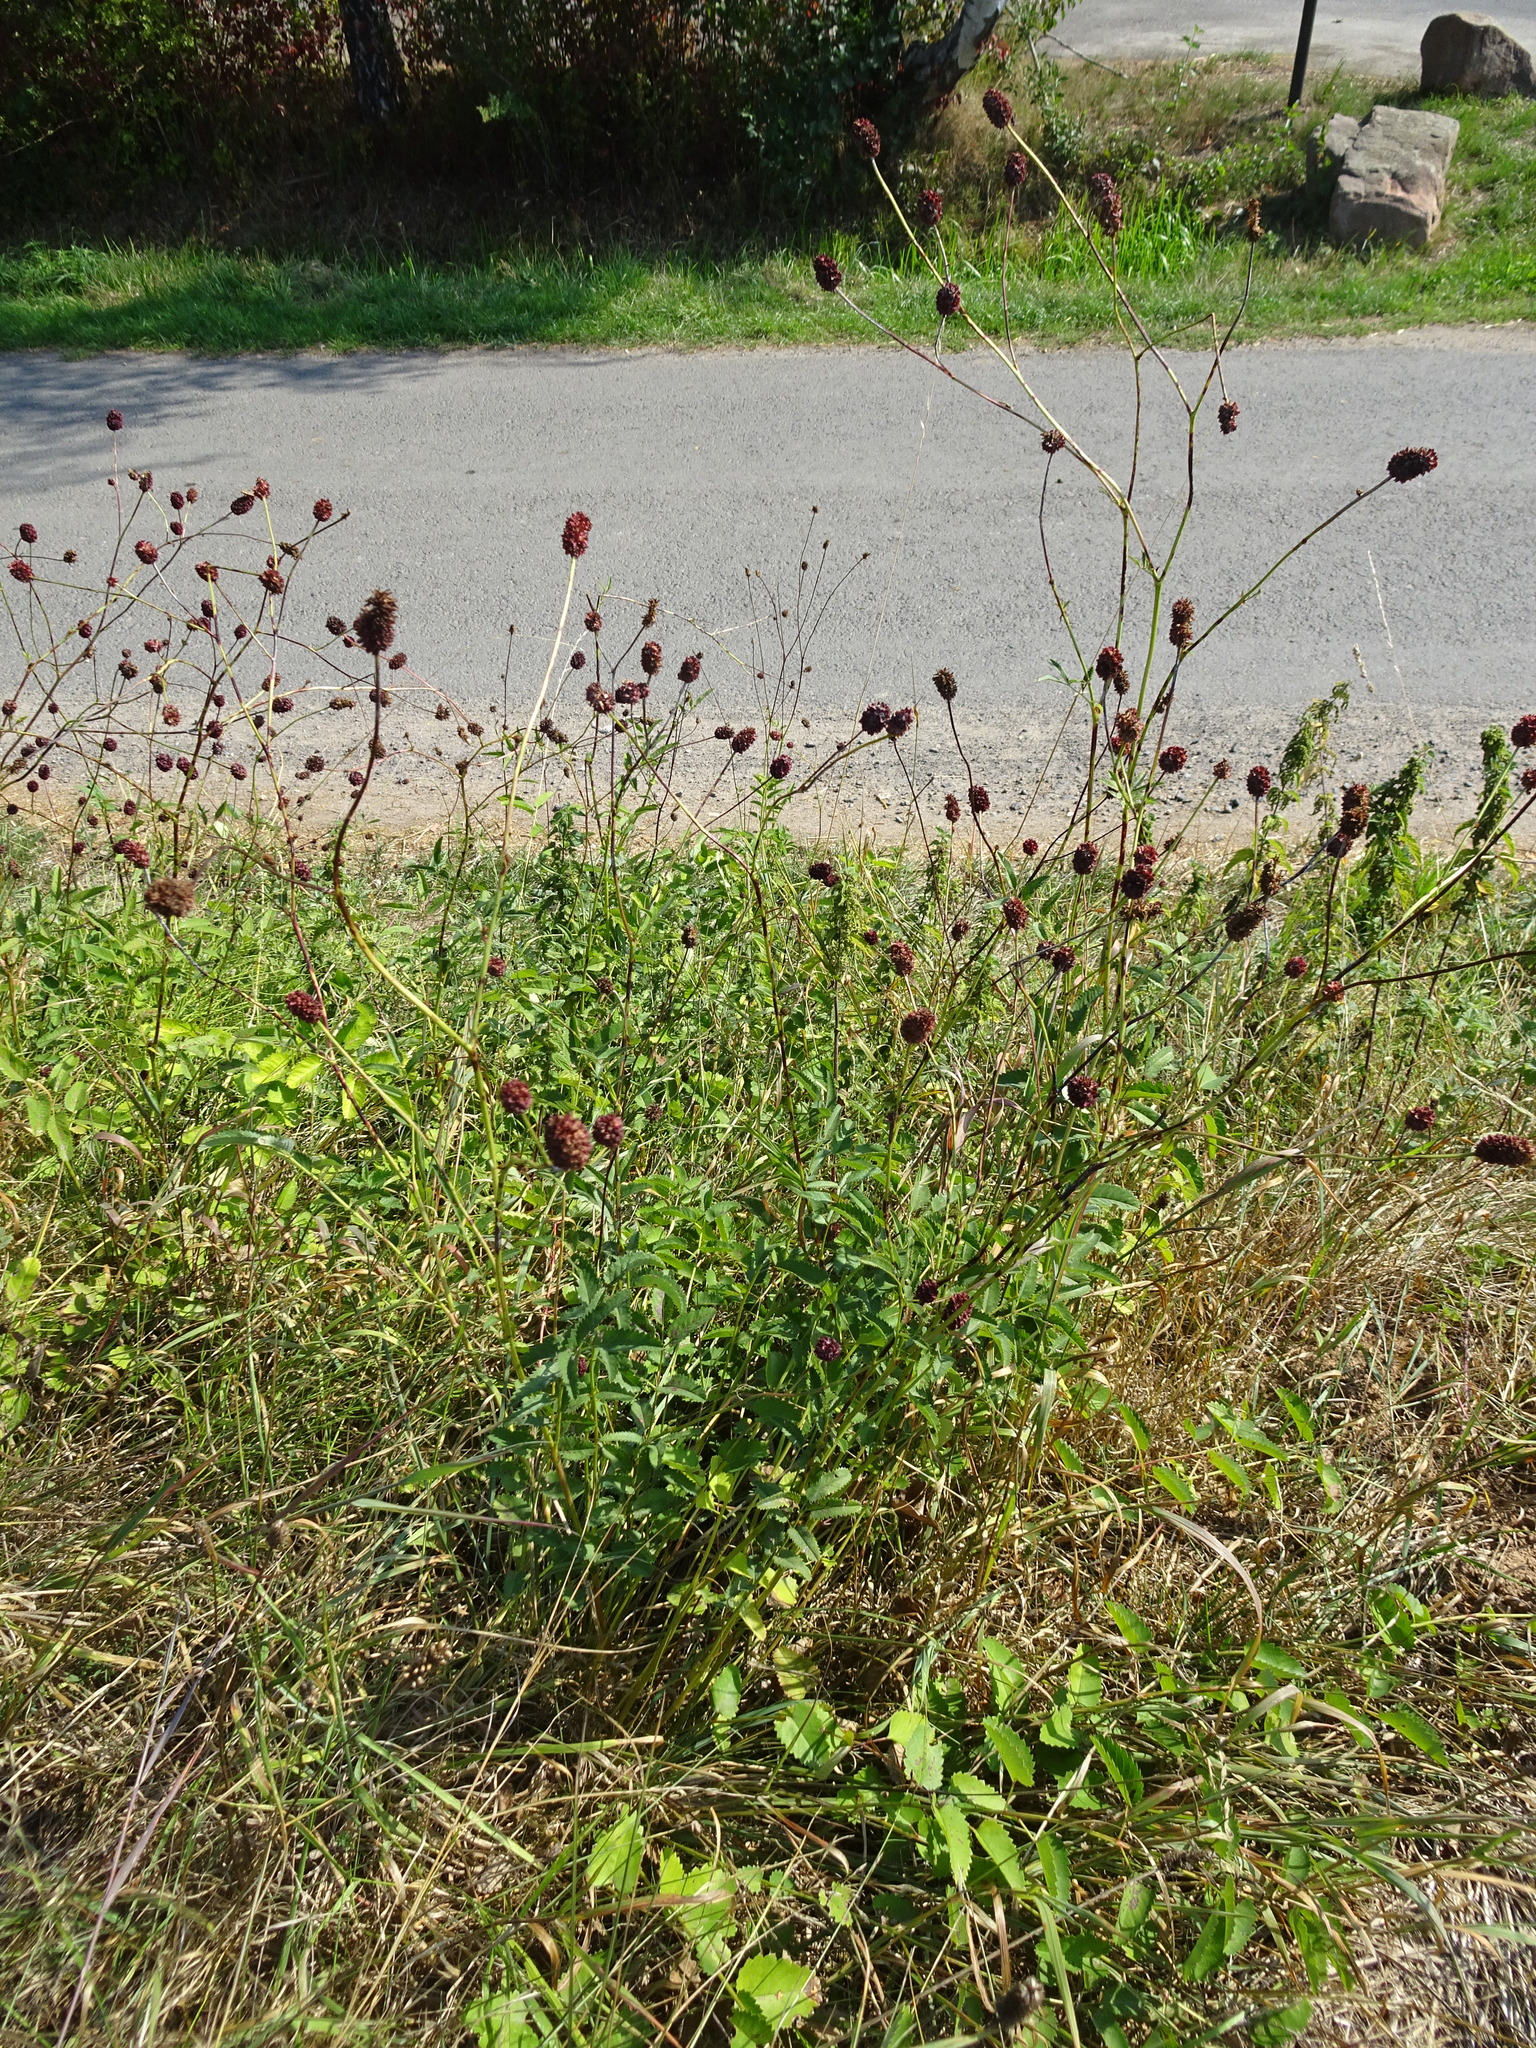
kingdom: Plantae
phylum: Tracheophyta
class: Magnoliopsida
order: Rosales
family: Rosaceae
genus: Sanguisorba
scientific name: Sanguisorba officinalis
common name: Great burnet
